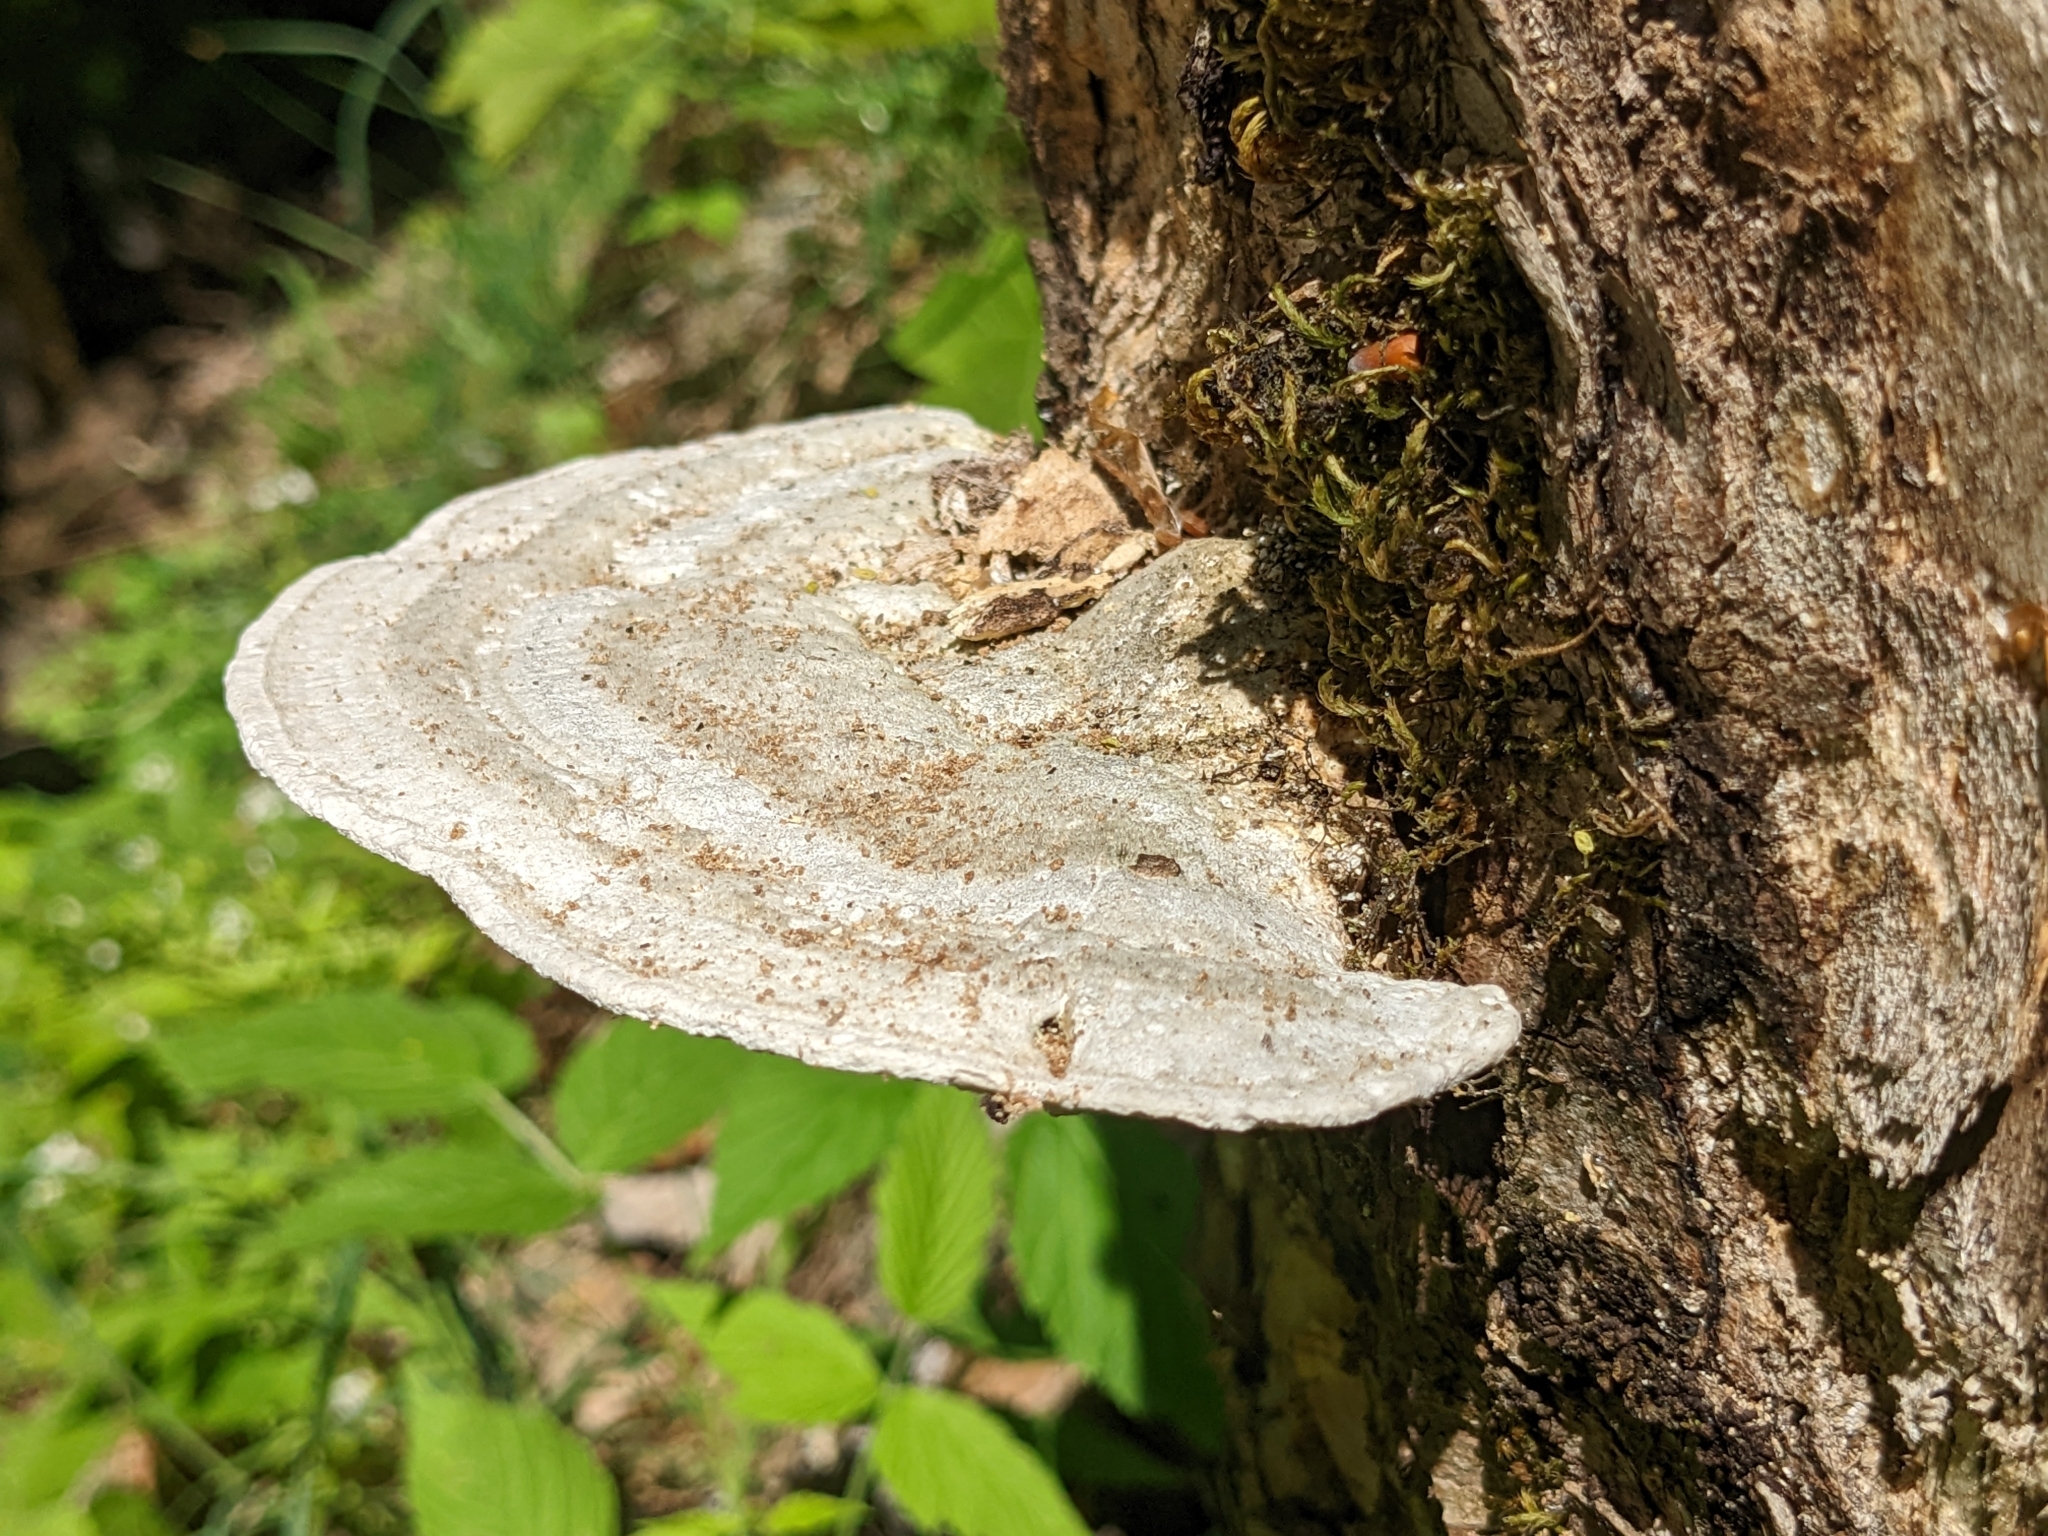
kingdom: Fungi
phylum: Basidiomycota
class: Agaricomycetes
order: Polyporales
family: Polyporaceae
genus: Trametes
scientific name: Trametes gibbosa
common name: Lumpy bracket
